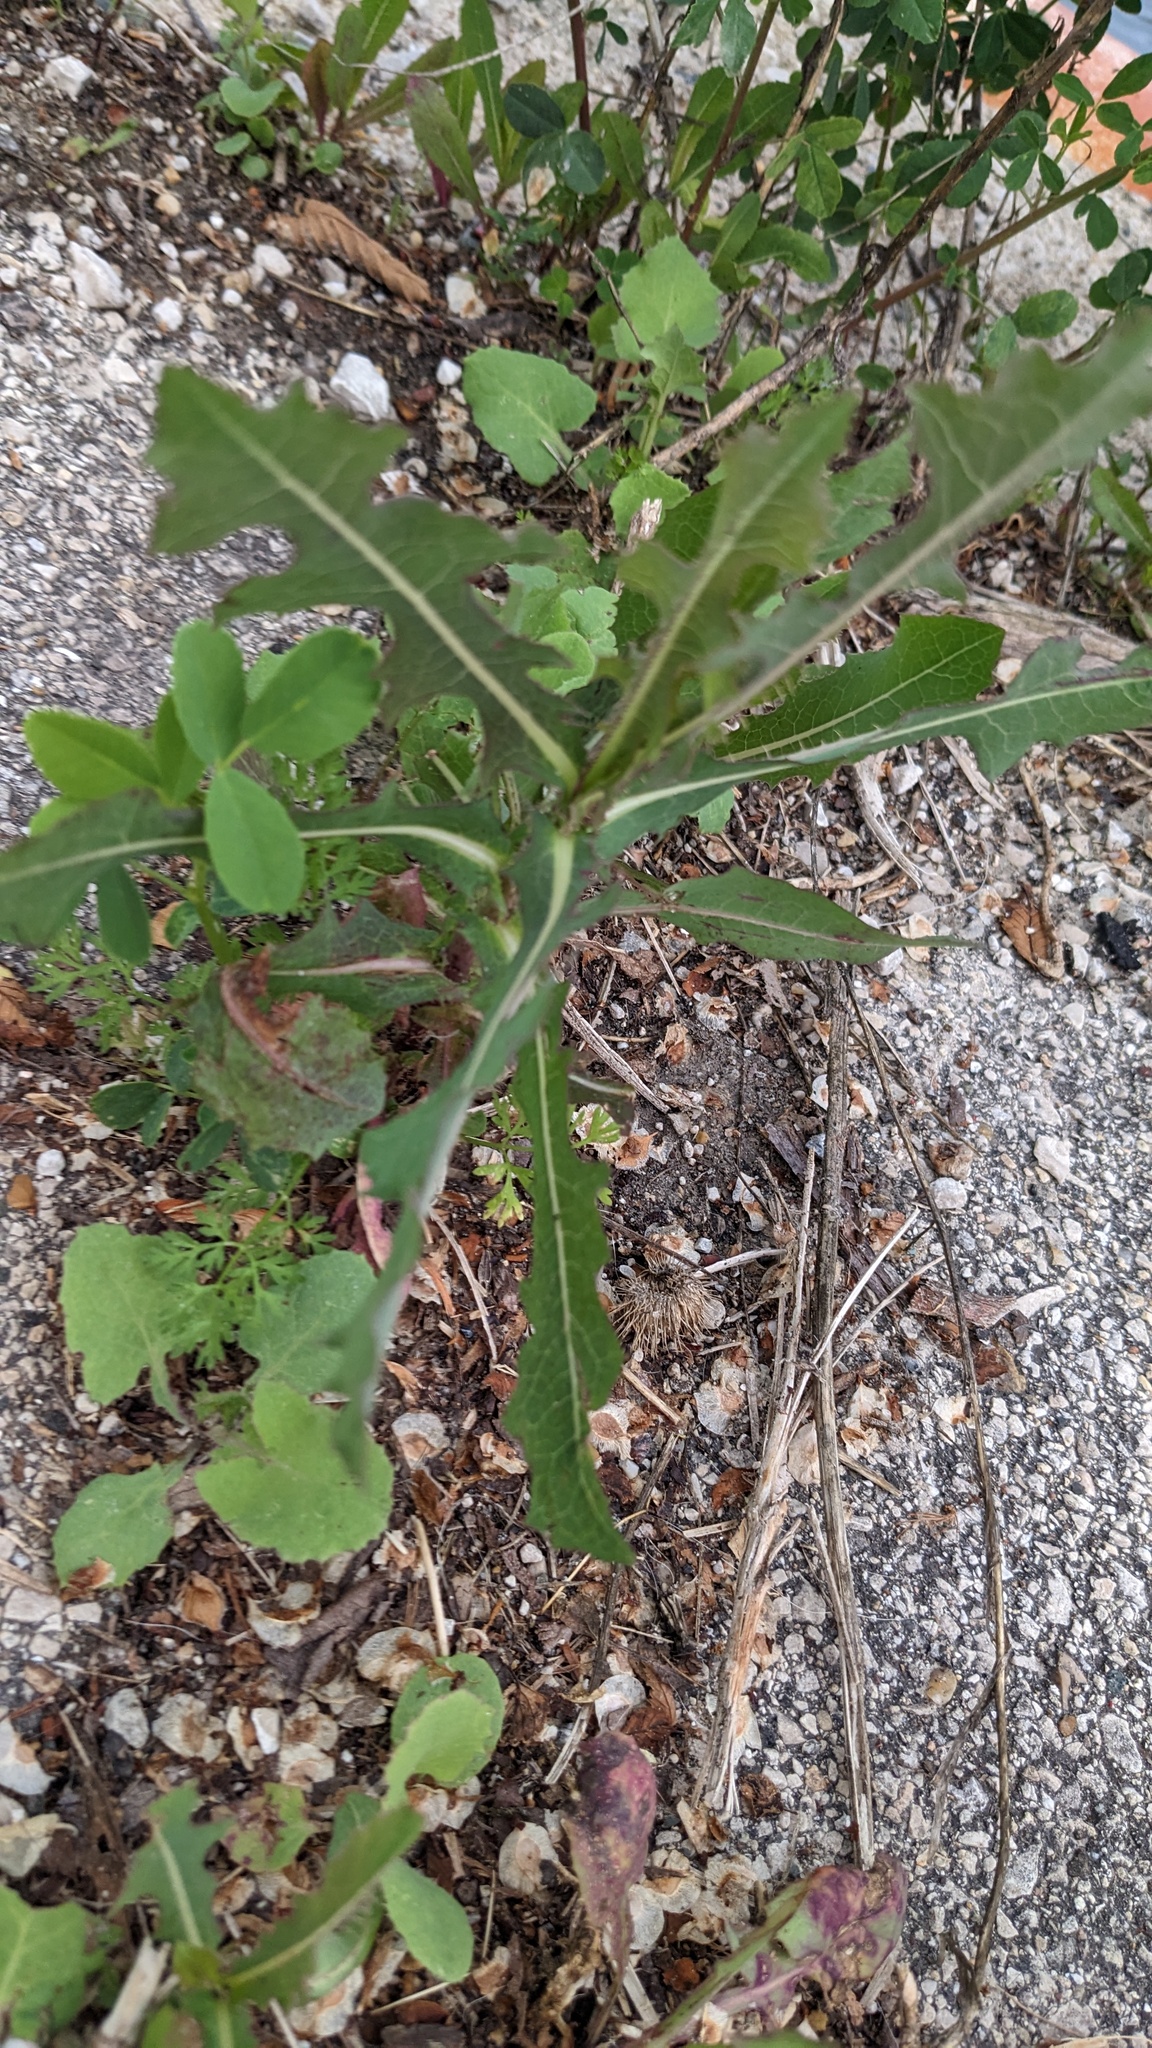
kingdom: Plantae
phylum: Tracheophyta
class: Magnoliopsida
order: Asterales
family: Asteraceae
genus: Lactuca
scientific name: Lactuca serriola
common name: Prickly lettuce
